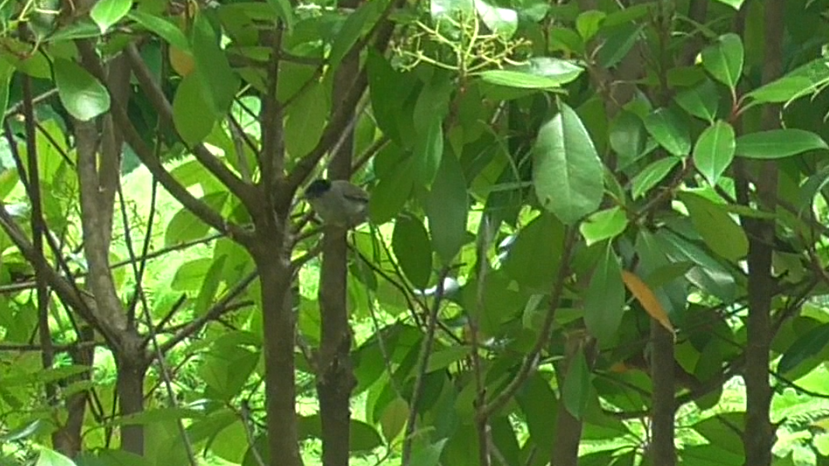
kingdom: Animalia
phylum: Chordata
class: Aves
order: Passeriformes
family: Sylviidae
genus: Sylvia
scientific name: Sylvia atricapilla
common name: Eurasian blackcap
